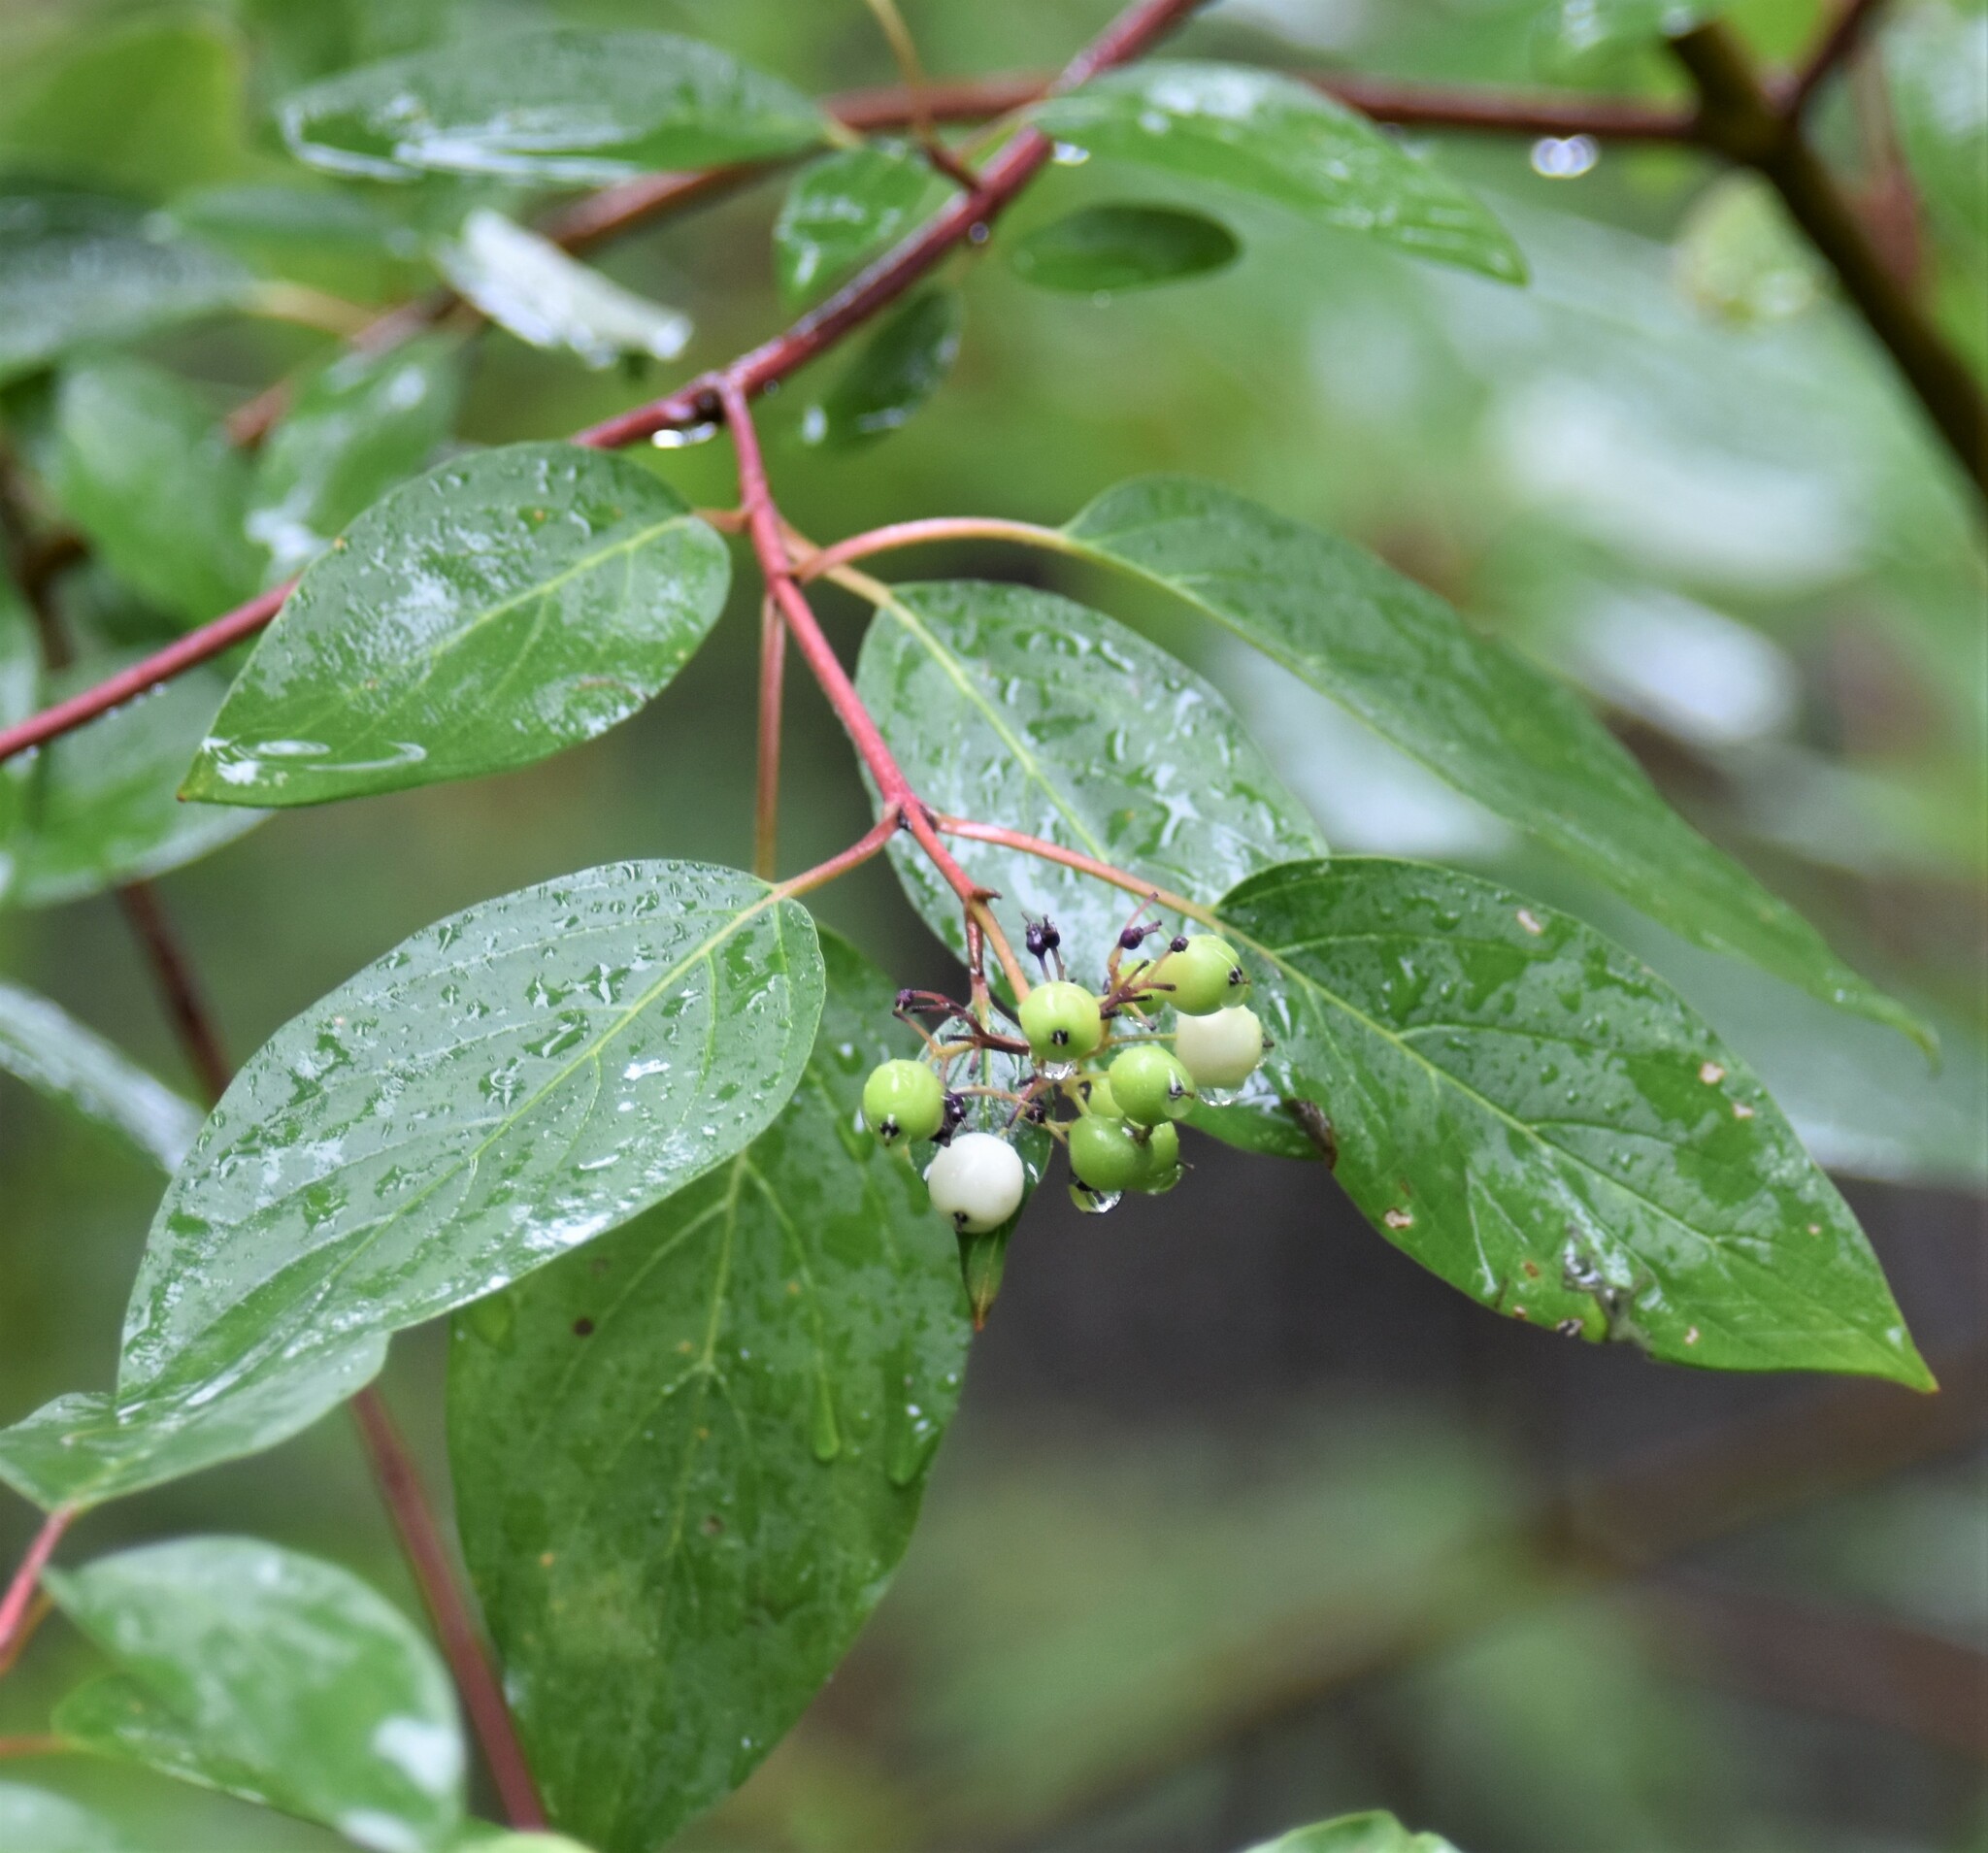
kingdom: Plantae
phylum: Tracheophyta
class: Magnoliopsida
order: Cornales
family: Cornaceae
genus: Cornus
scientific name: Cornus sericea
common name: Red-osier dogwood
